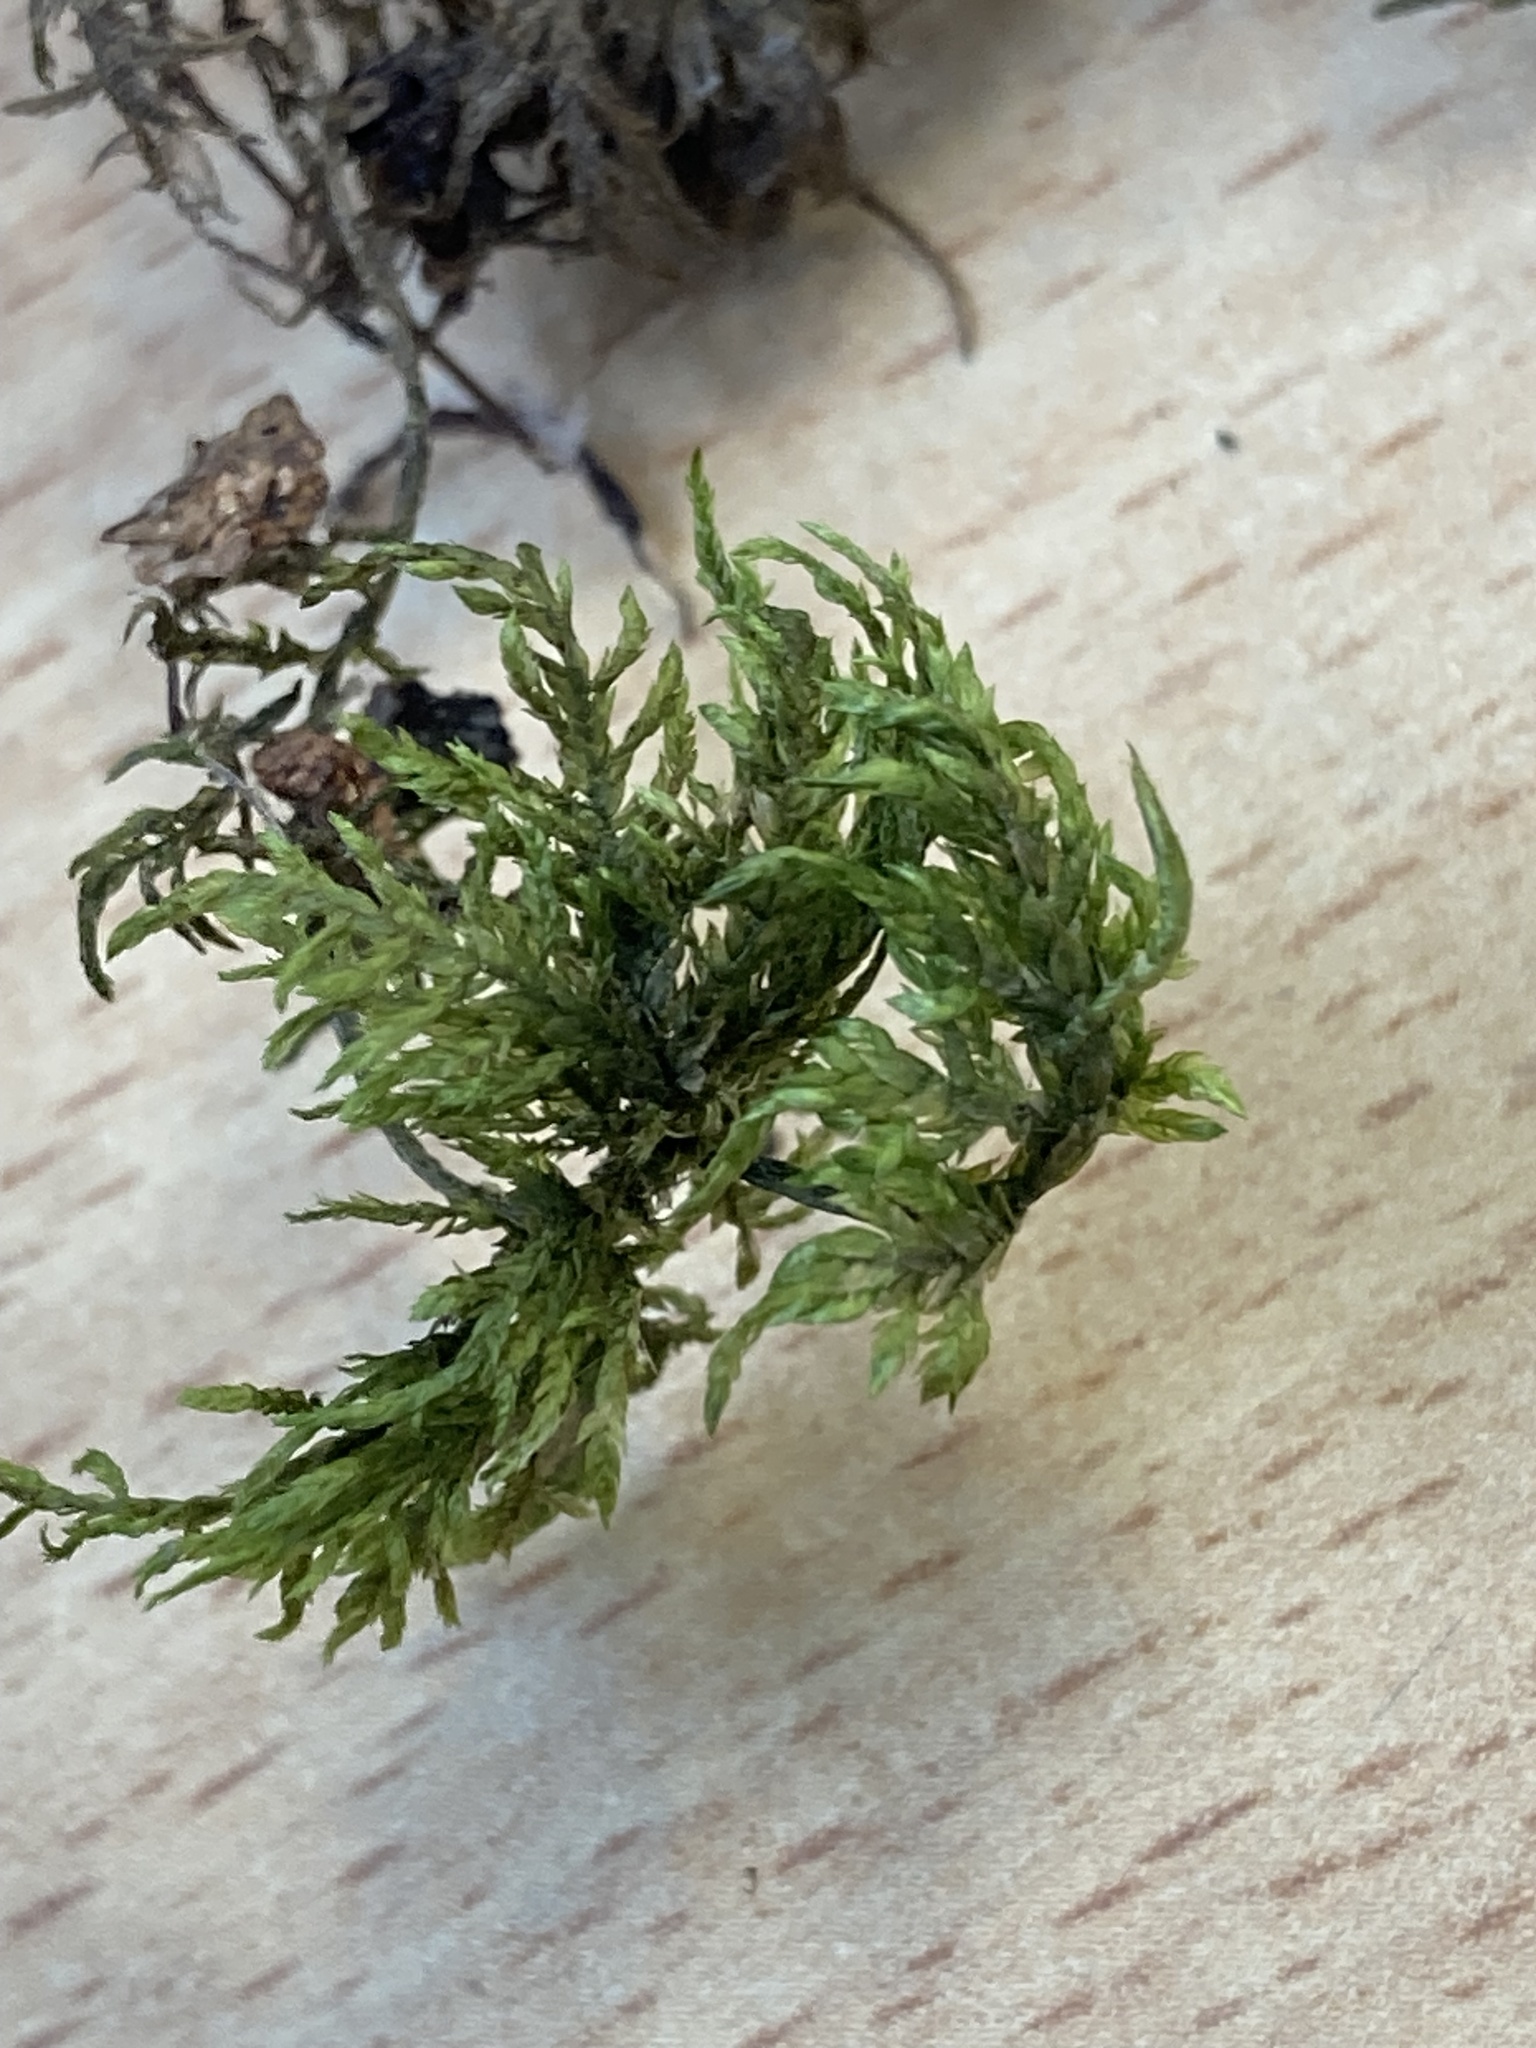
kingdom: Plantae
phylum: Bryophyta
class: Bryopsida
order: Hypnales
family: Hylocomiaceae
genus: Hylocomium
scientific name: Hylocomium splendens
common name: Stairstep moss
